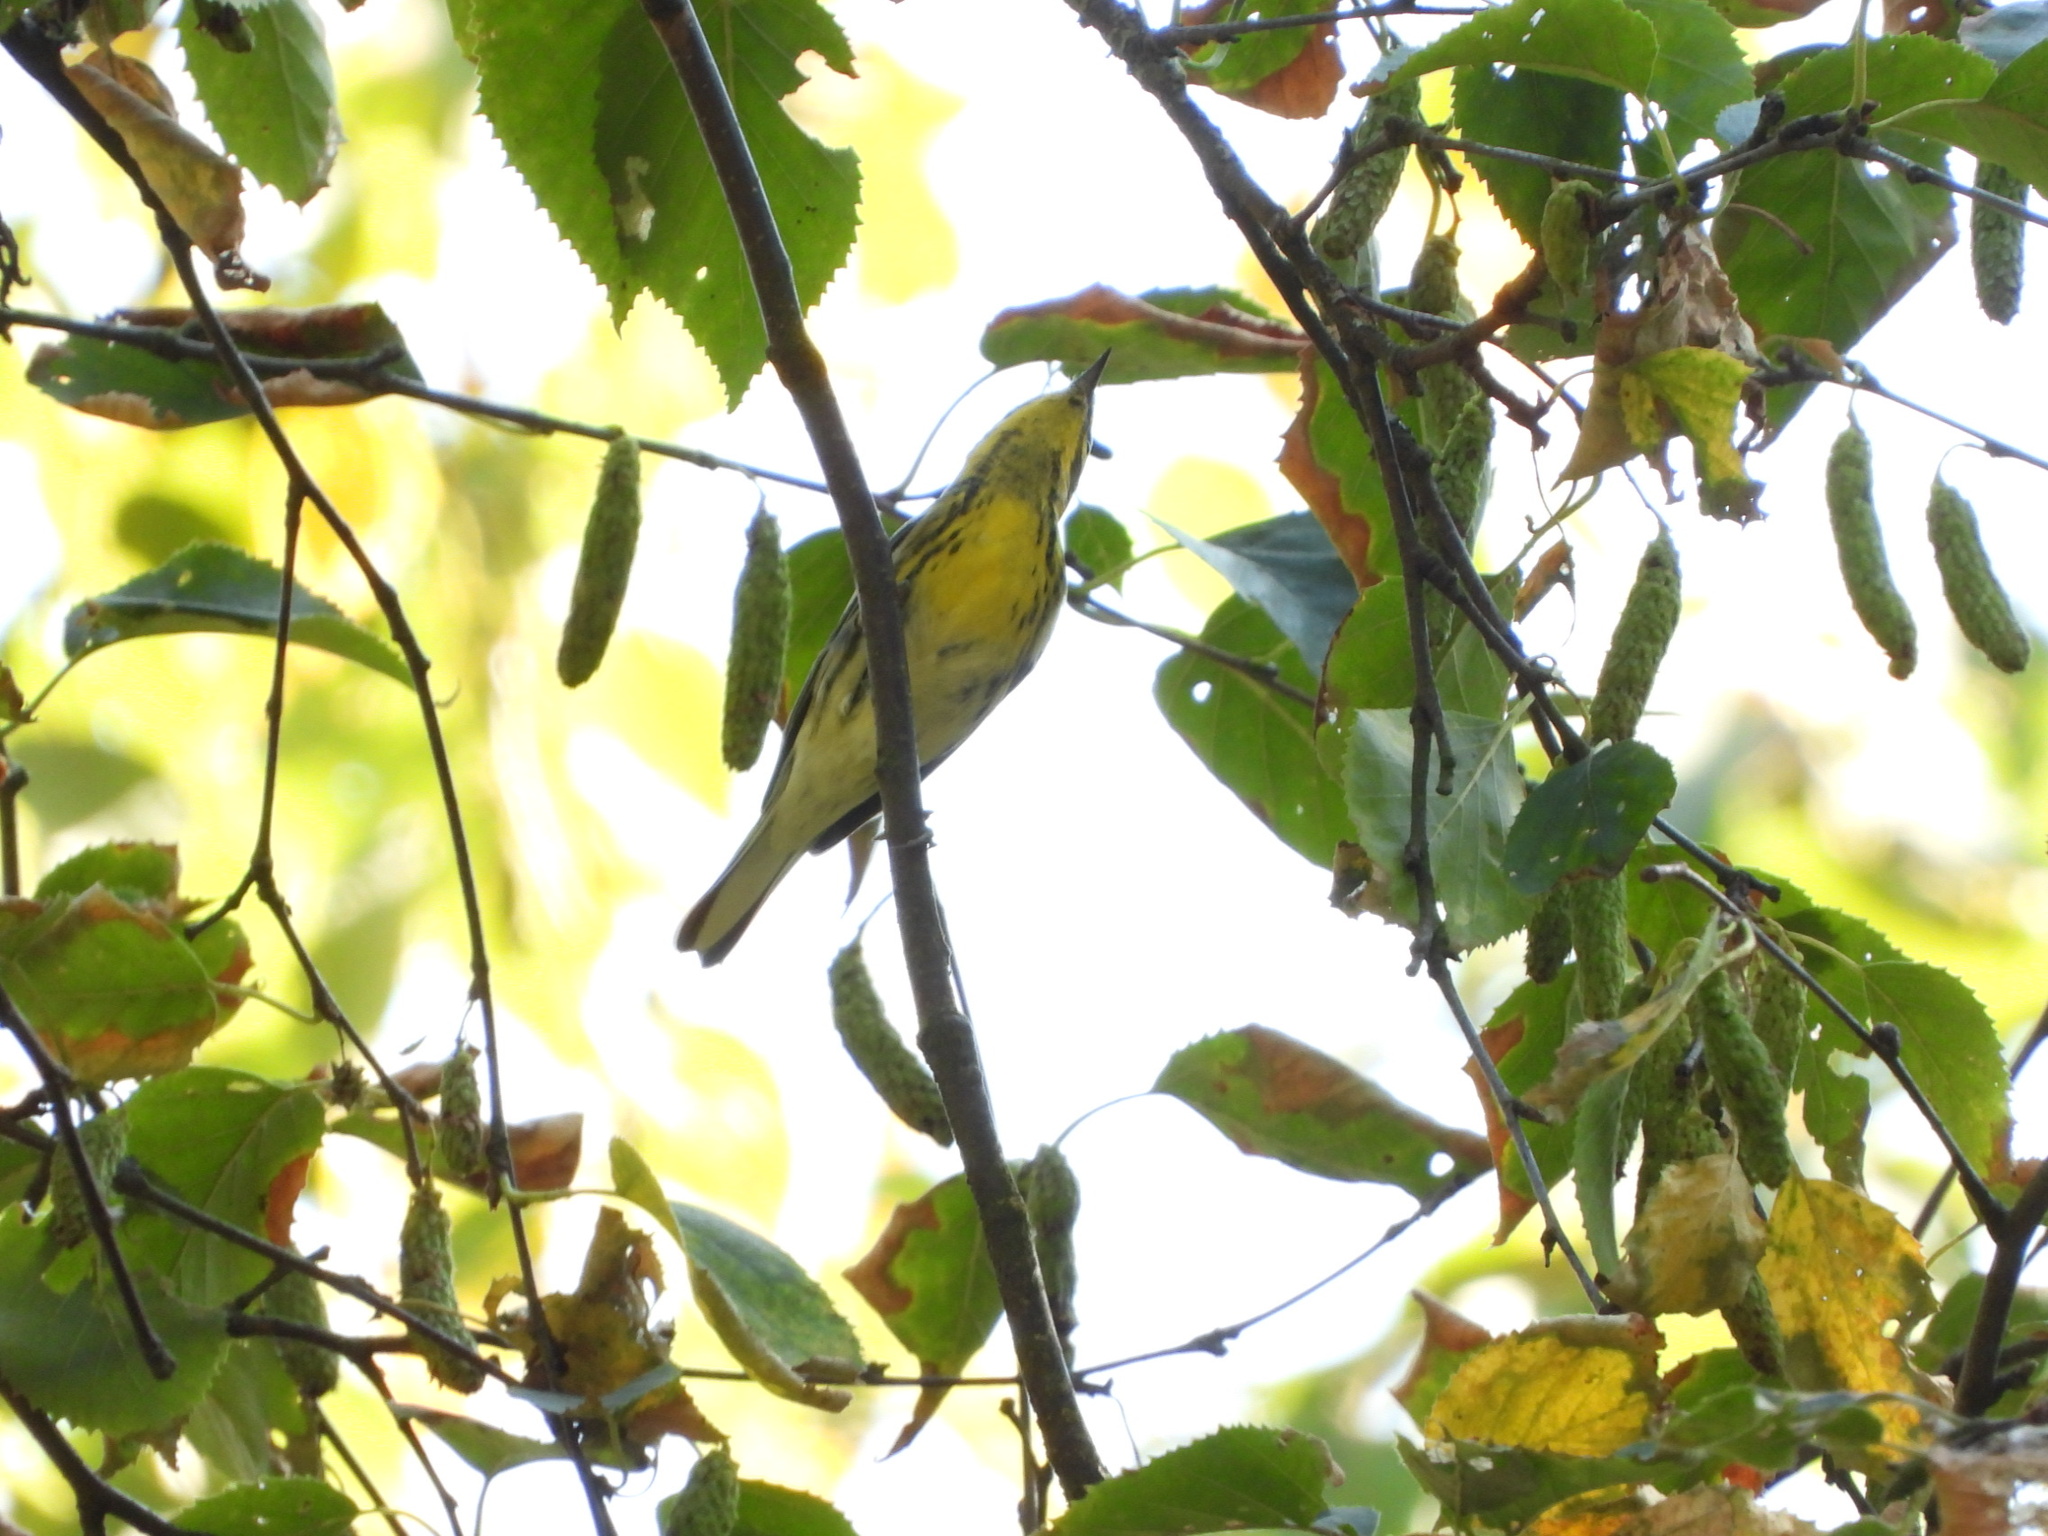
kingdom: Animalia
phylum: Chordata
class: Aves
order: Passeriformes
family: Parulidae
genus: Setophaga
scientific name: Setophaga townsendi
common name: Townsend's warbler
